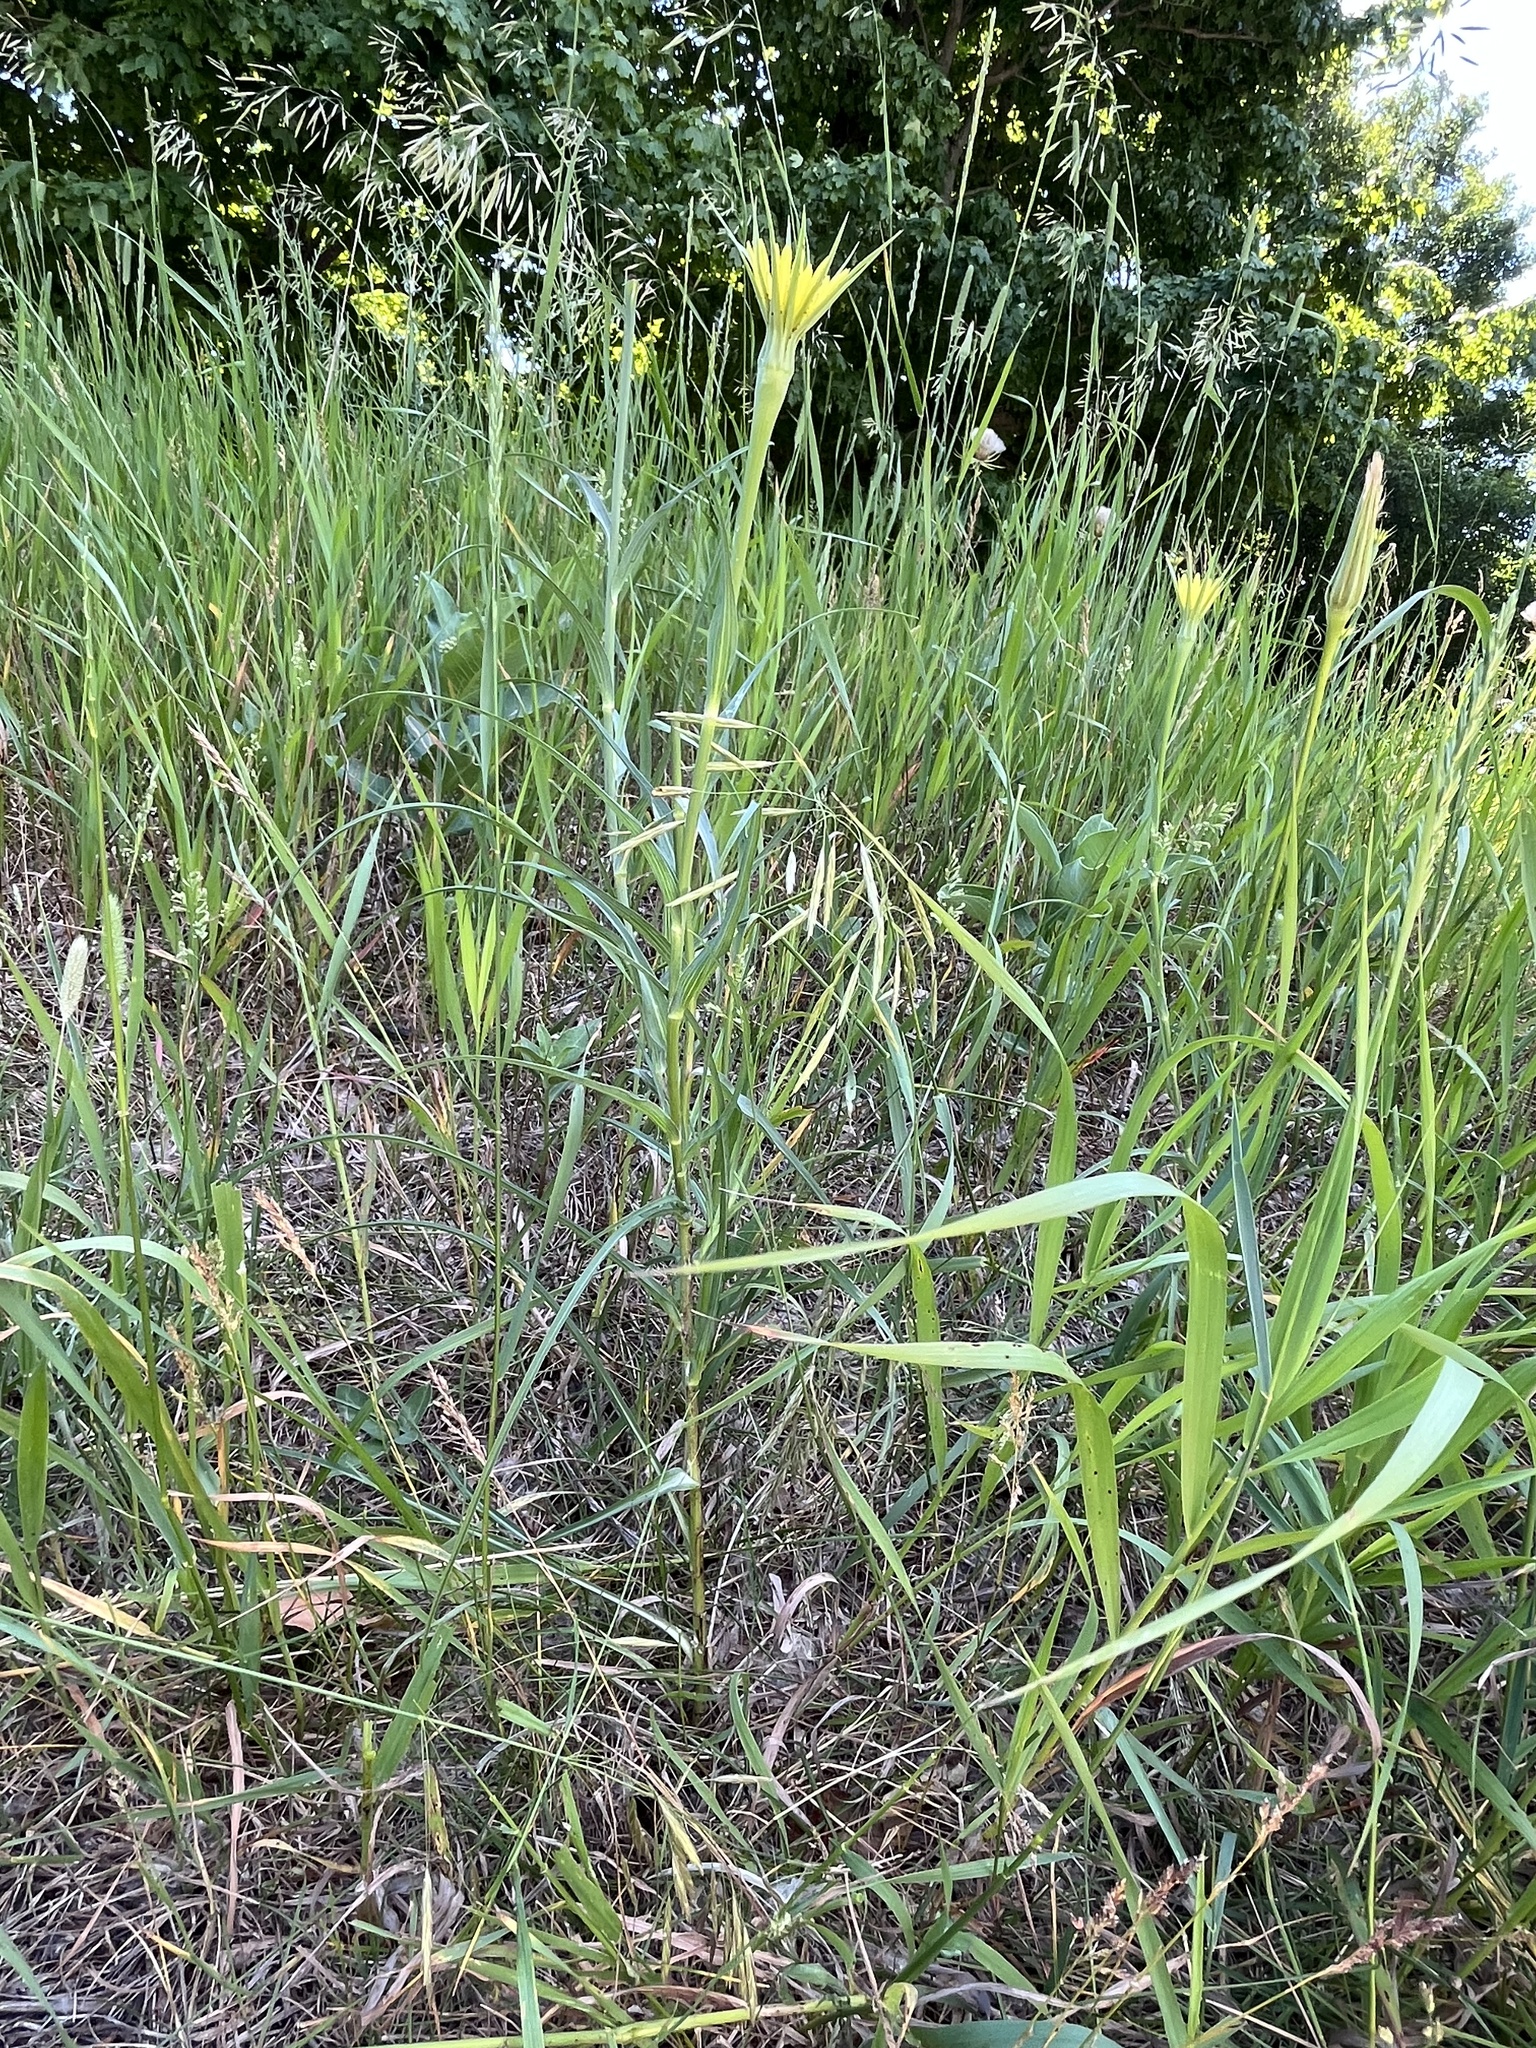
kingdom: Plantae
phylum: Tracheophyta
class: Magnoliopsida
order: Asterales
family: Asteraceae
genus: Tragopogon
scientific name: Tragopogon dubius
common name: Yellow salsify
